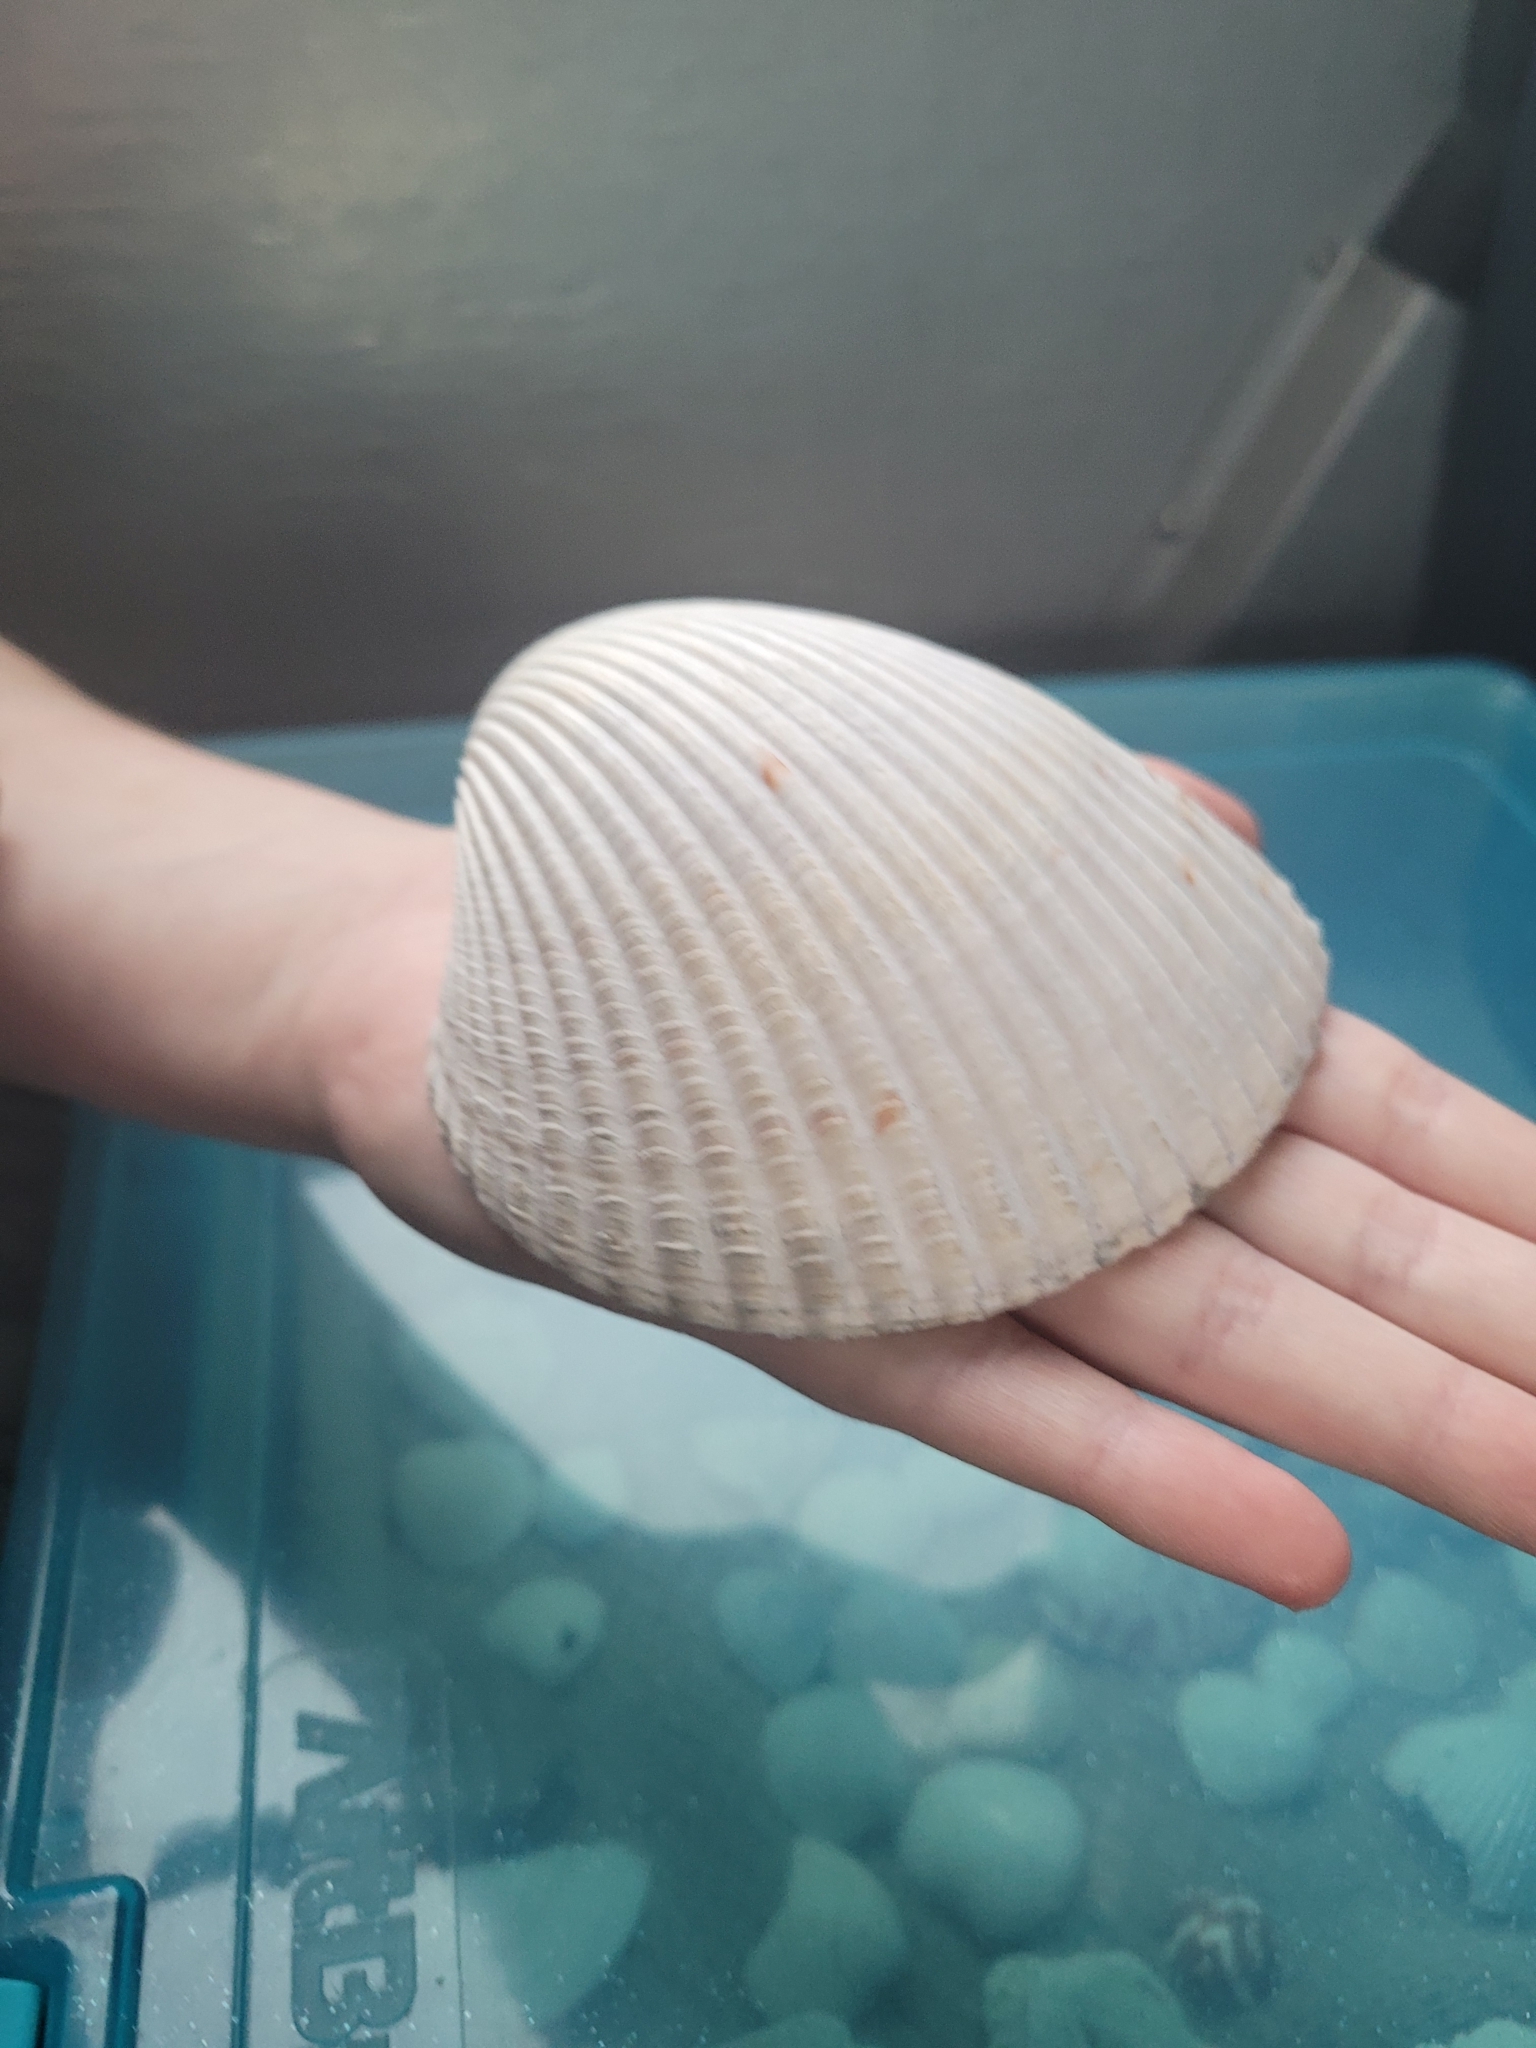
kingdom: Animalia
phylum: Mollusca
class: Bivalvia
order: Cardiida
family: Cardiidae
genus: Dinocardium
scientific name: Dinocardium robustum
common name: Atlantic giant cockle
